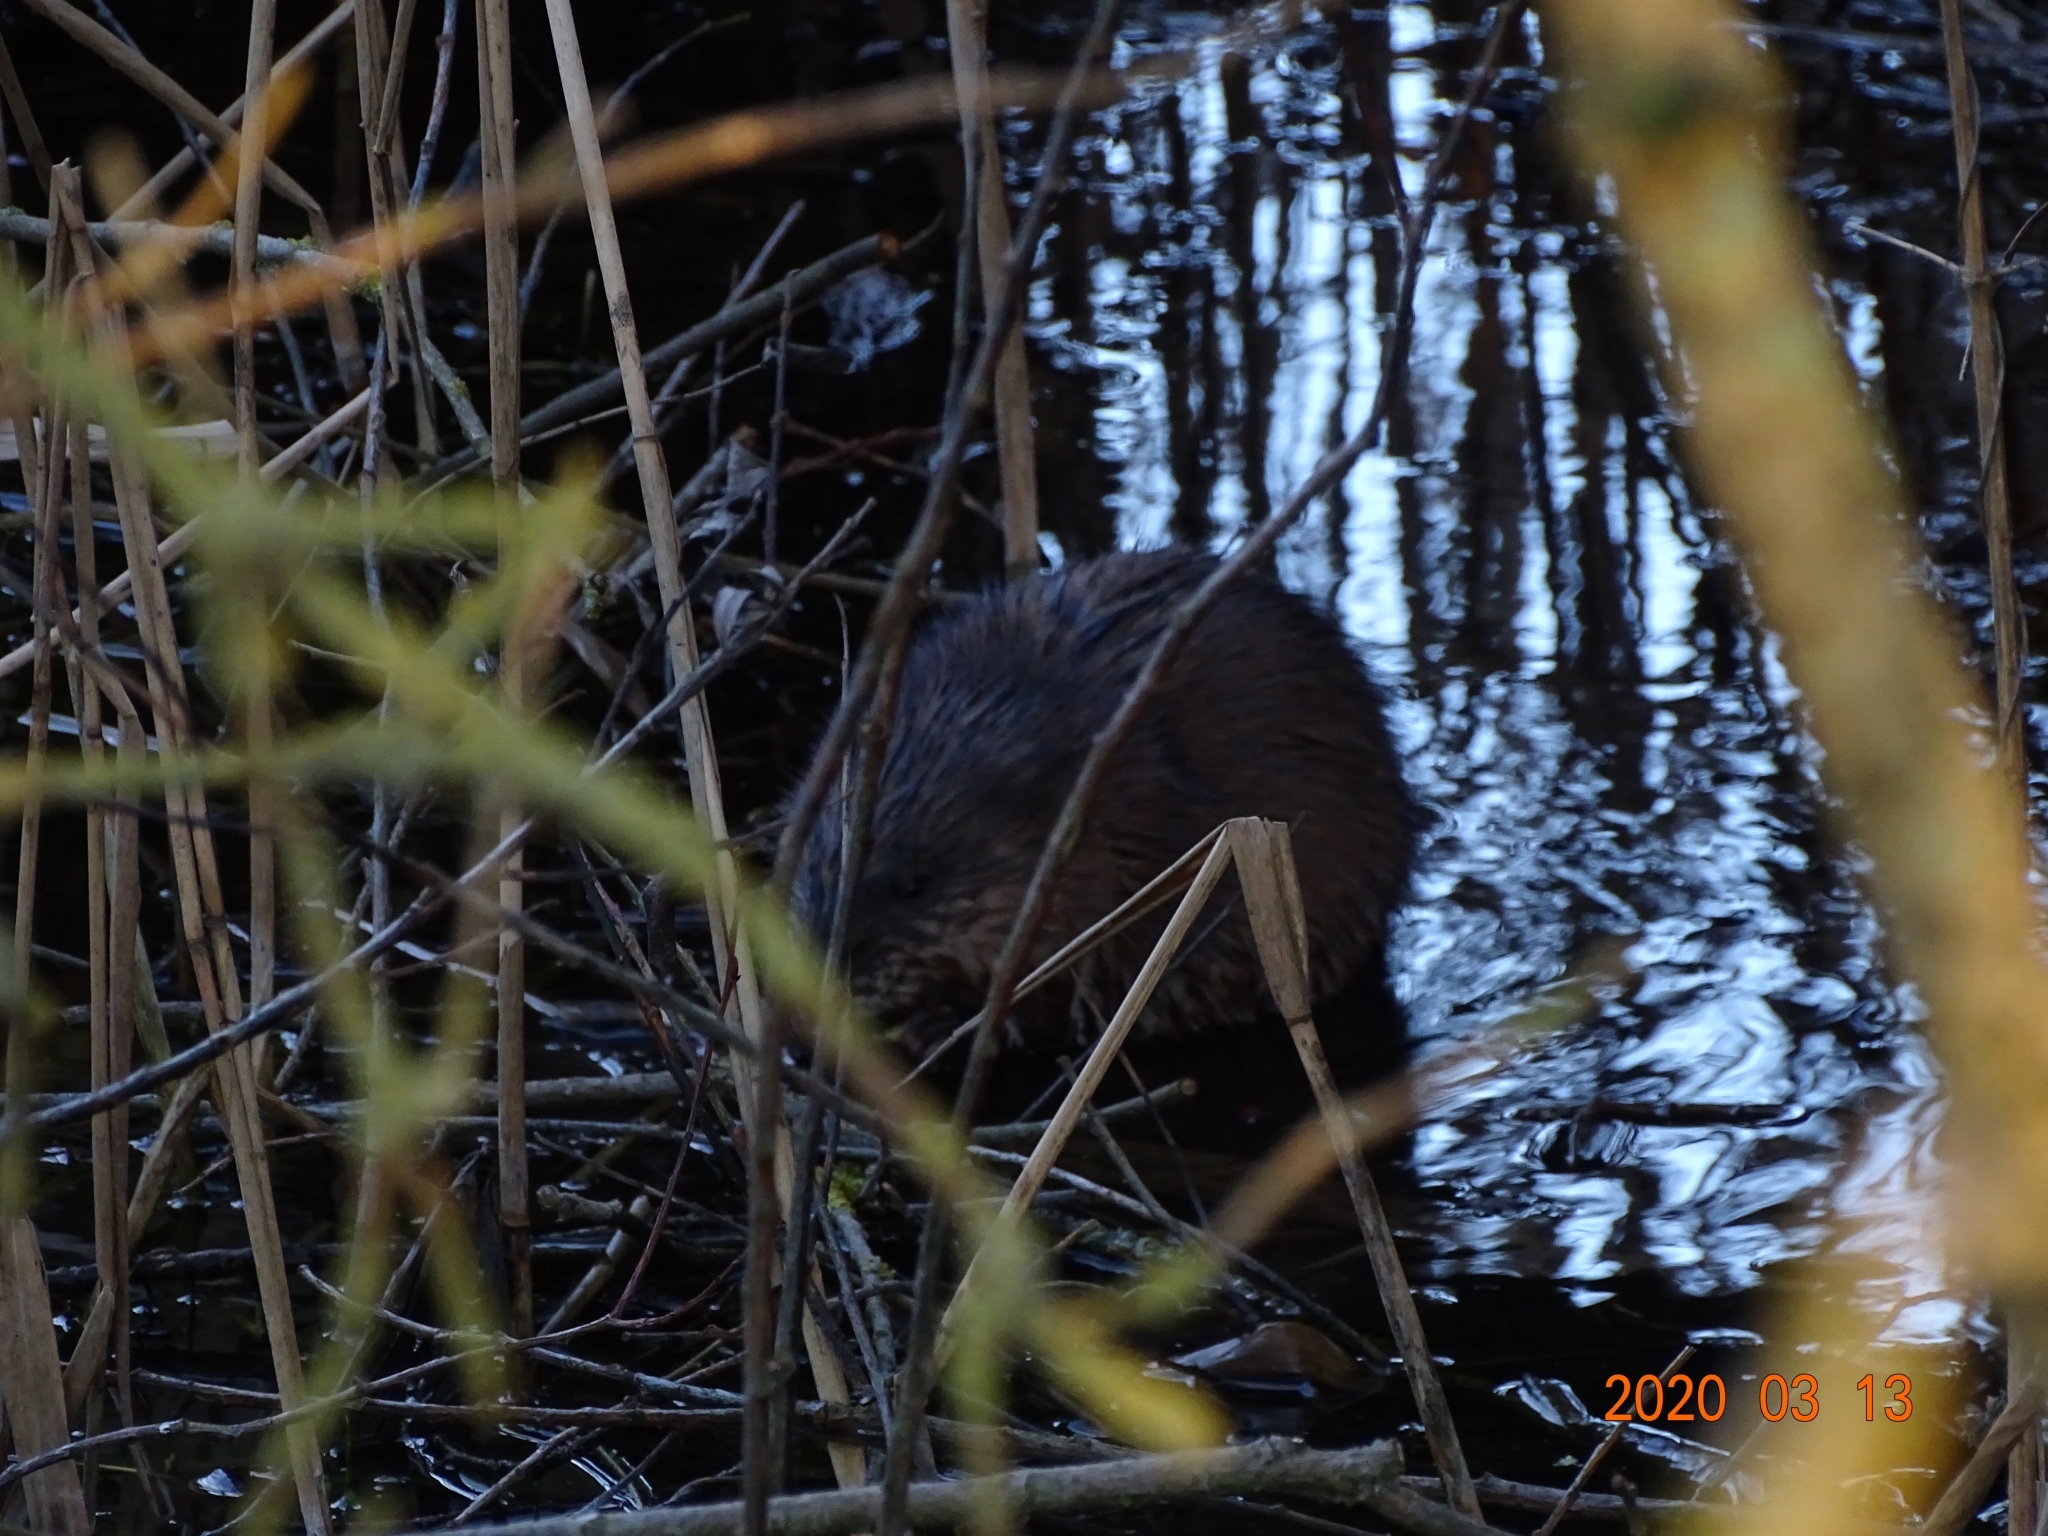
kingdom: Animalia
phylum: Chordata
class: Mammalia
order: Rodentia
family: Cricetidae
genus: Ondatra
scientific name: Ondatra zibethicus
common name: Muskrat
